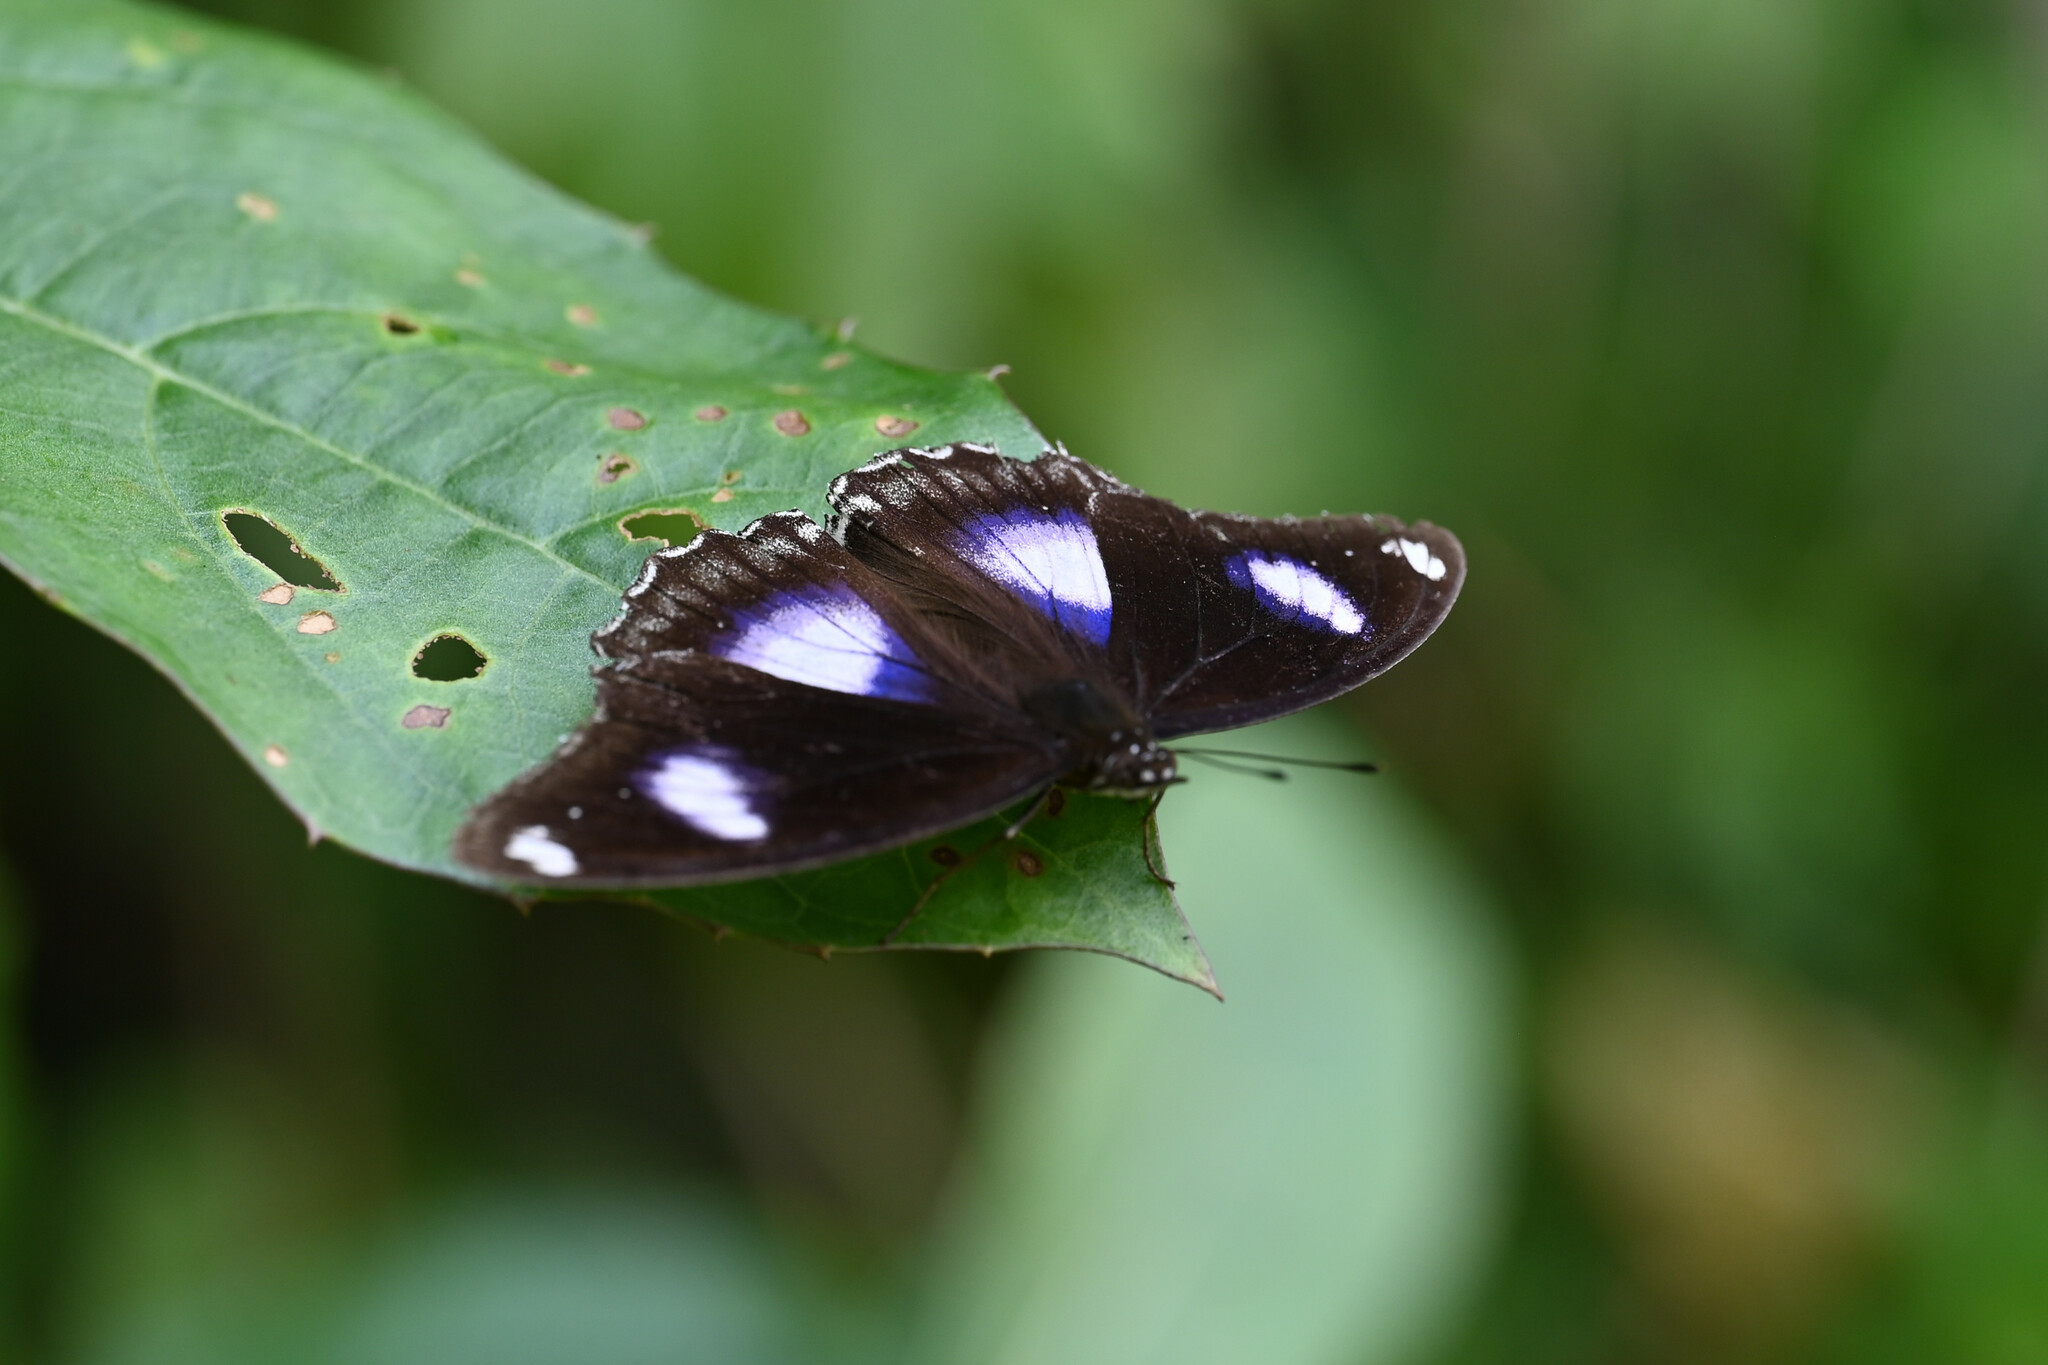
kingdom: Animalia
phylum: Arthropoda
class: Insecta
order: Lepidoptera
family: Nymphalidae
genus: Hypolimnas
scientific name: Hypolimnas bolina
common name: Great eggfly
